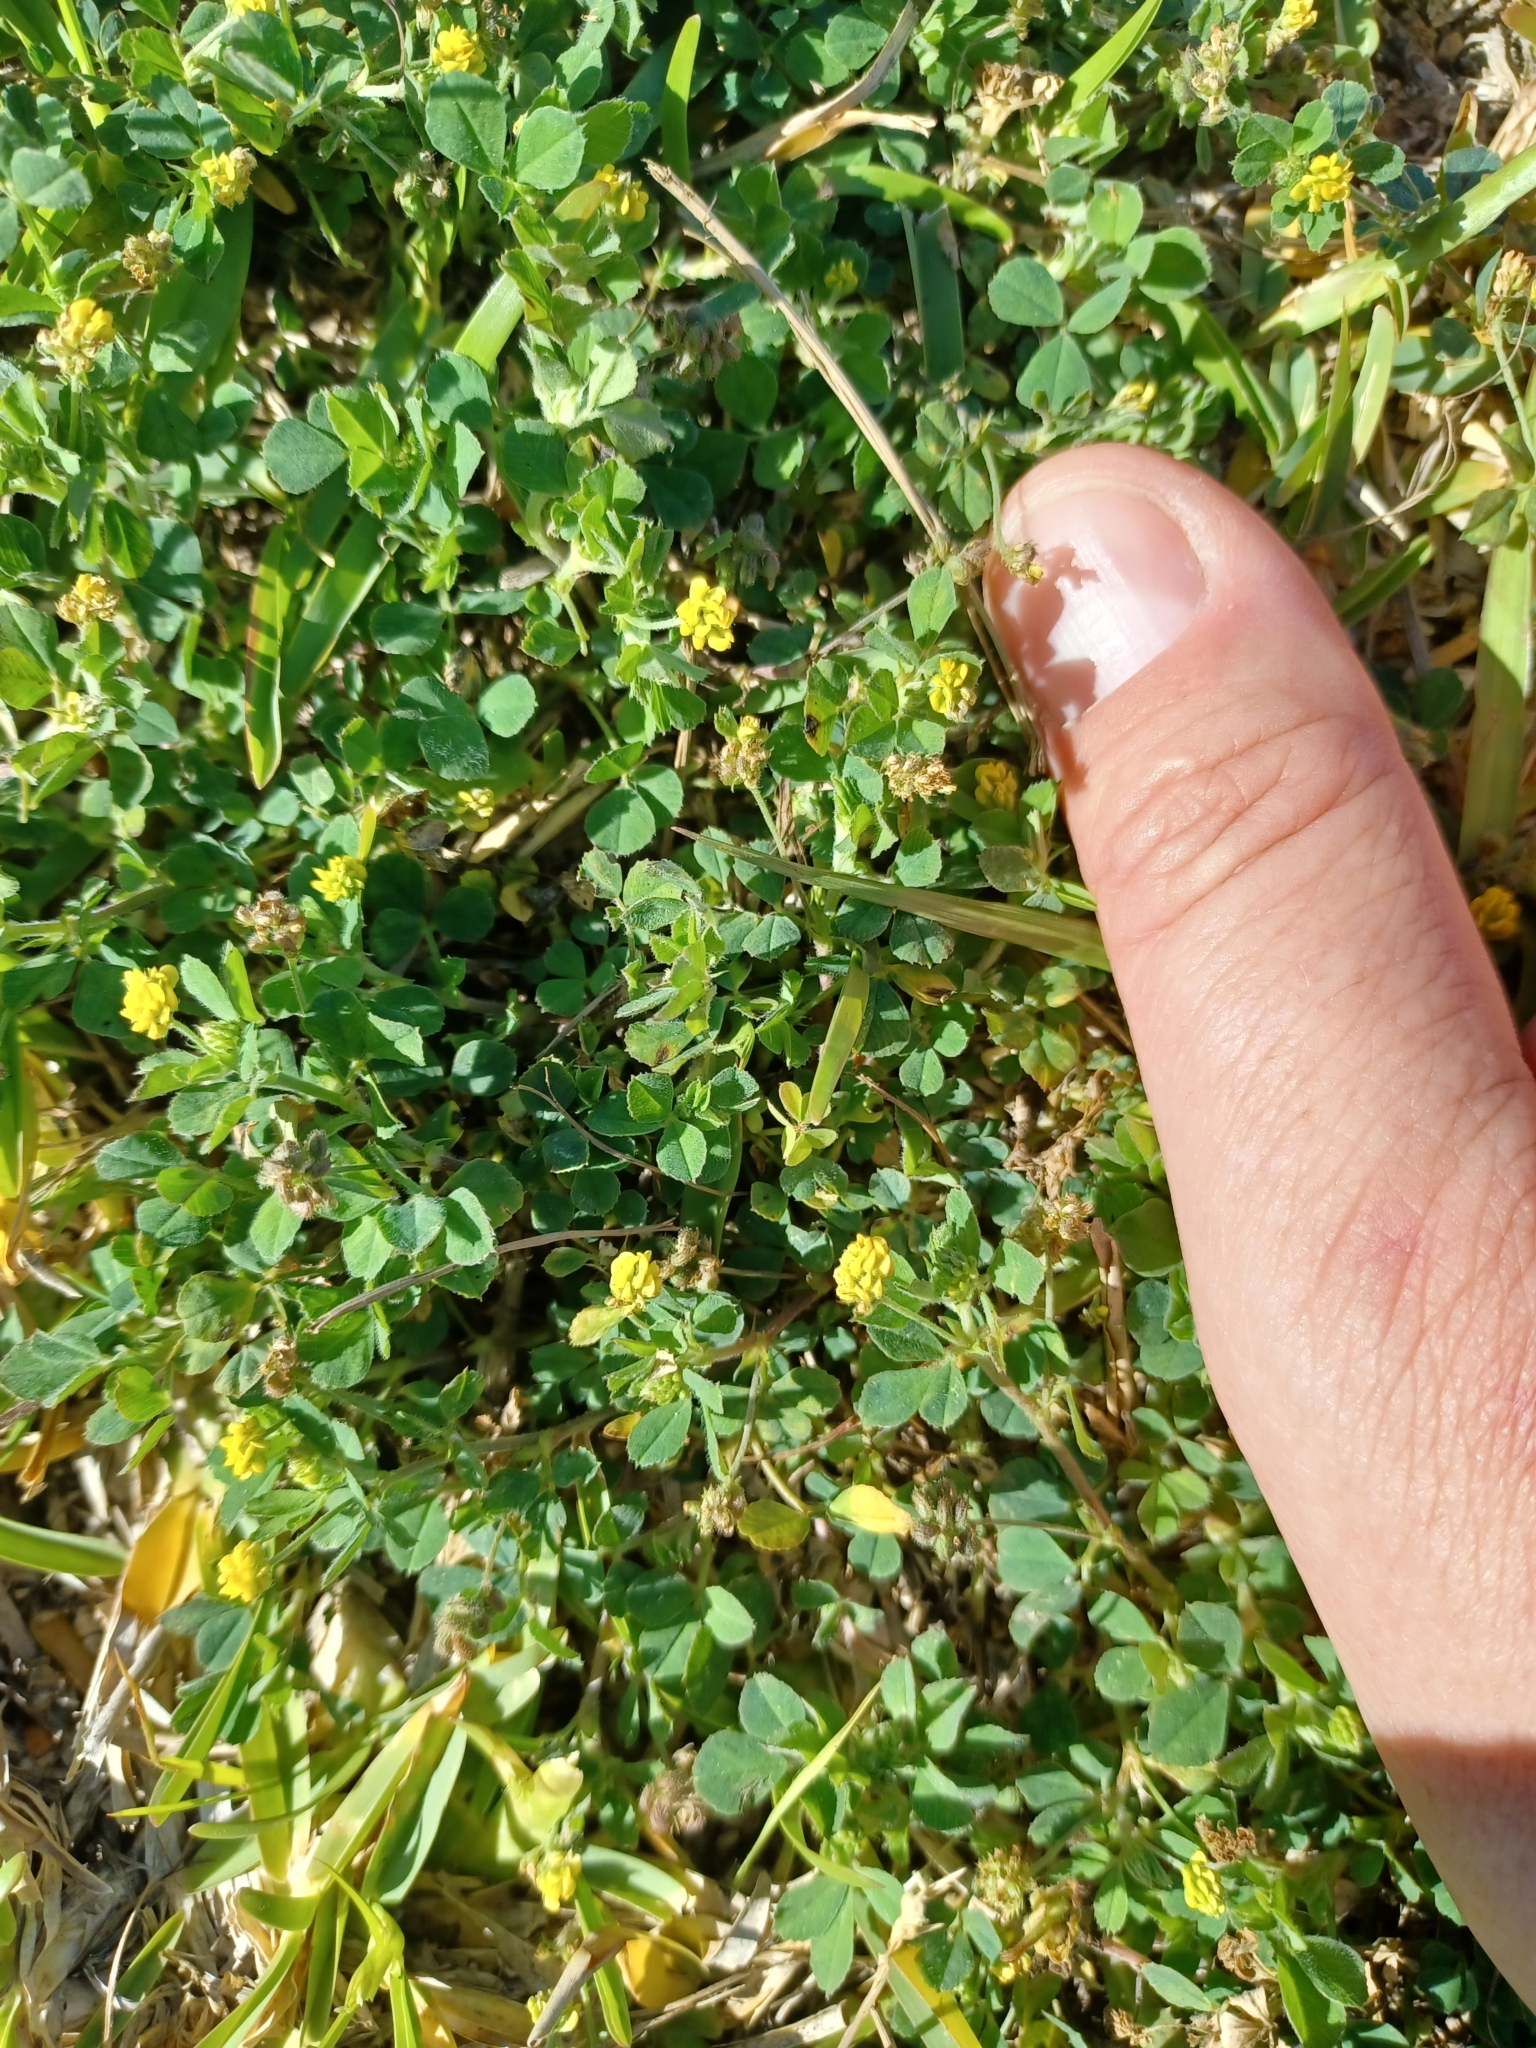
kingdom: Plantae
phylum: Tracheophyta
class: Magnoliopsida
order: Fabales
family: Fabaceae
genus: Medicago
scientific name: Medicago lupulina
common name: Black medick
